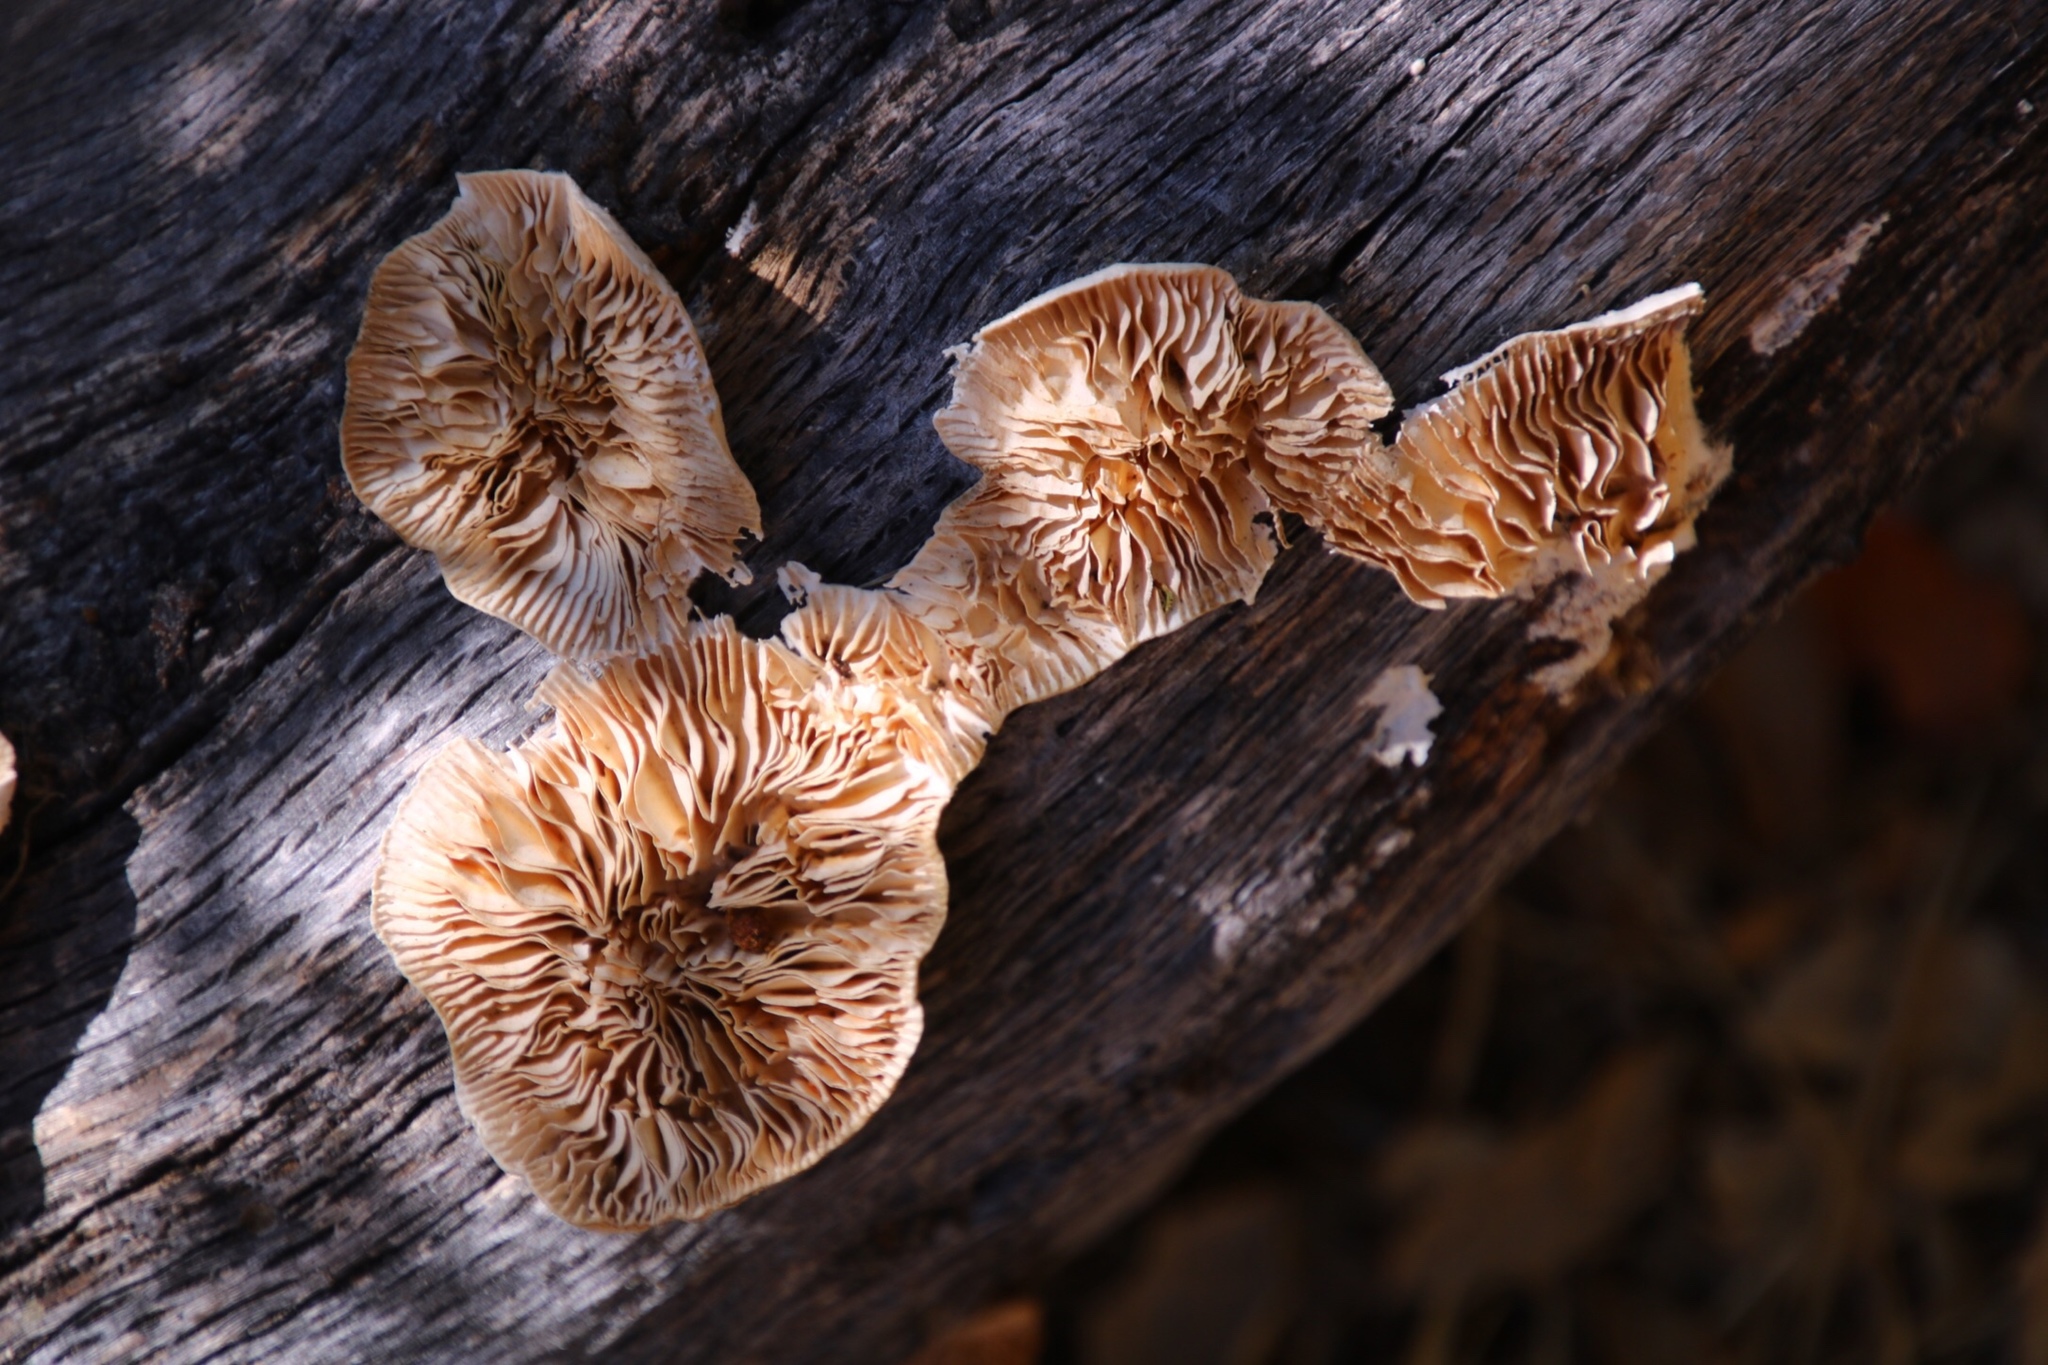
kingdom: Fungi
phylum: Basidiomycota
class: Agaricomycetes
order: Polyporales
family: Polyporaceae
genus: Lenzites
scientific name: Lenzites betulinus
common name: Birch mazegill
